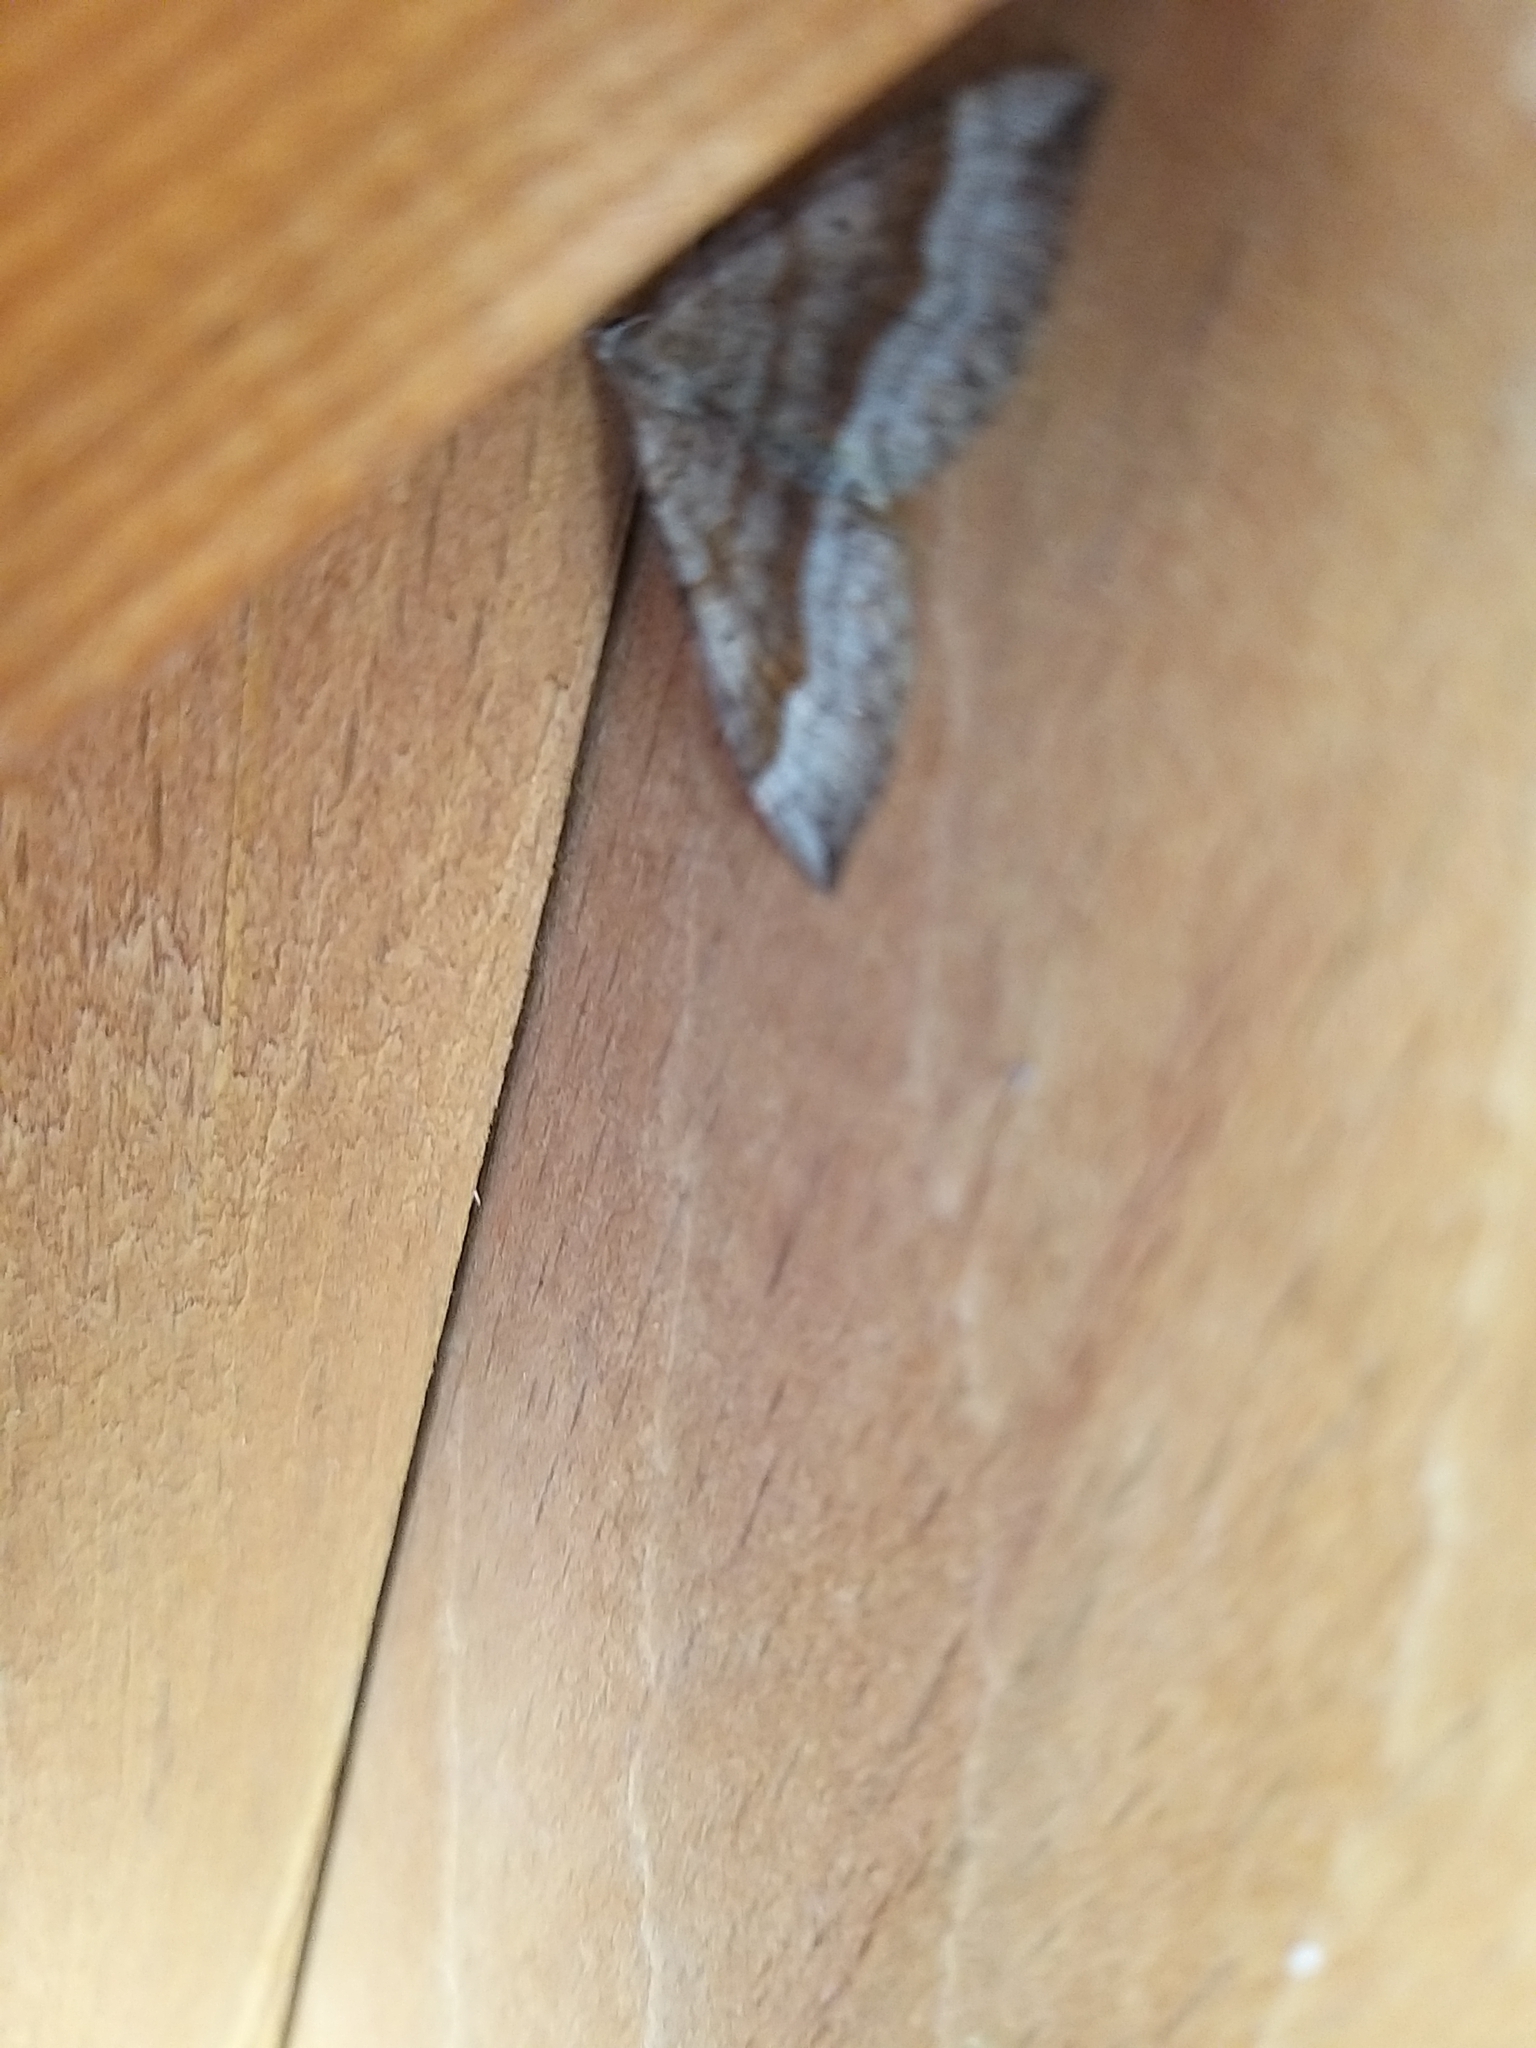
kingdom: Animalia
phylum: Arthropoda
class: Insecta
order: Lepidoptera
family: Geometridae
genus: Scotopteryx
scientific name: Scotopteryx chenopodiata
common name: Shaded broad-bar
